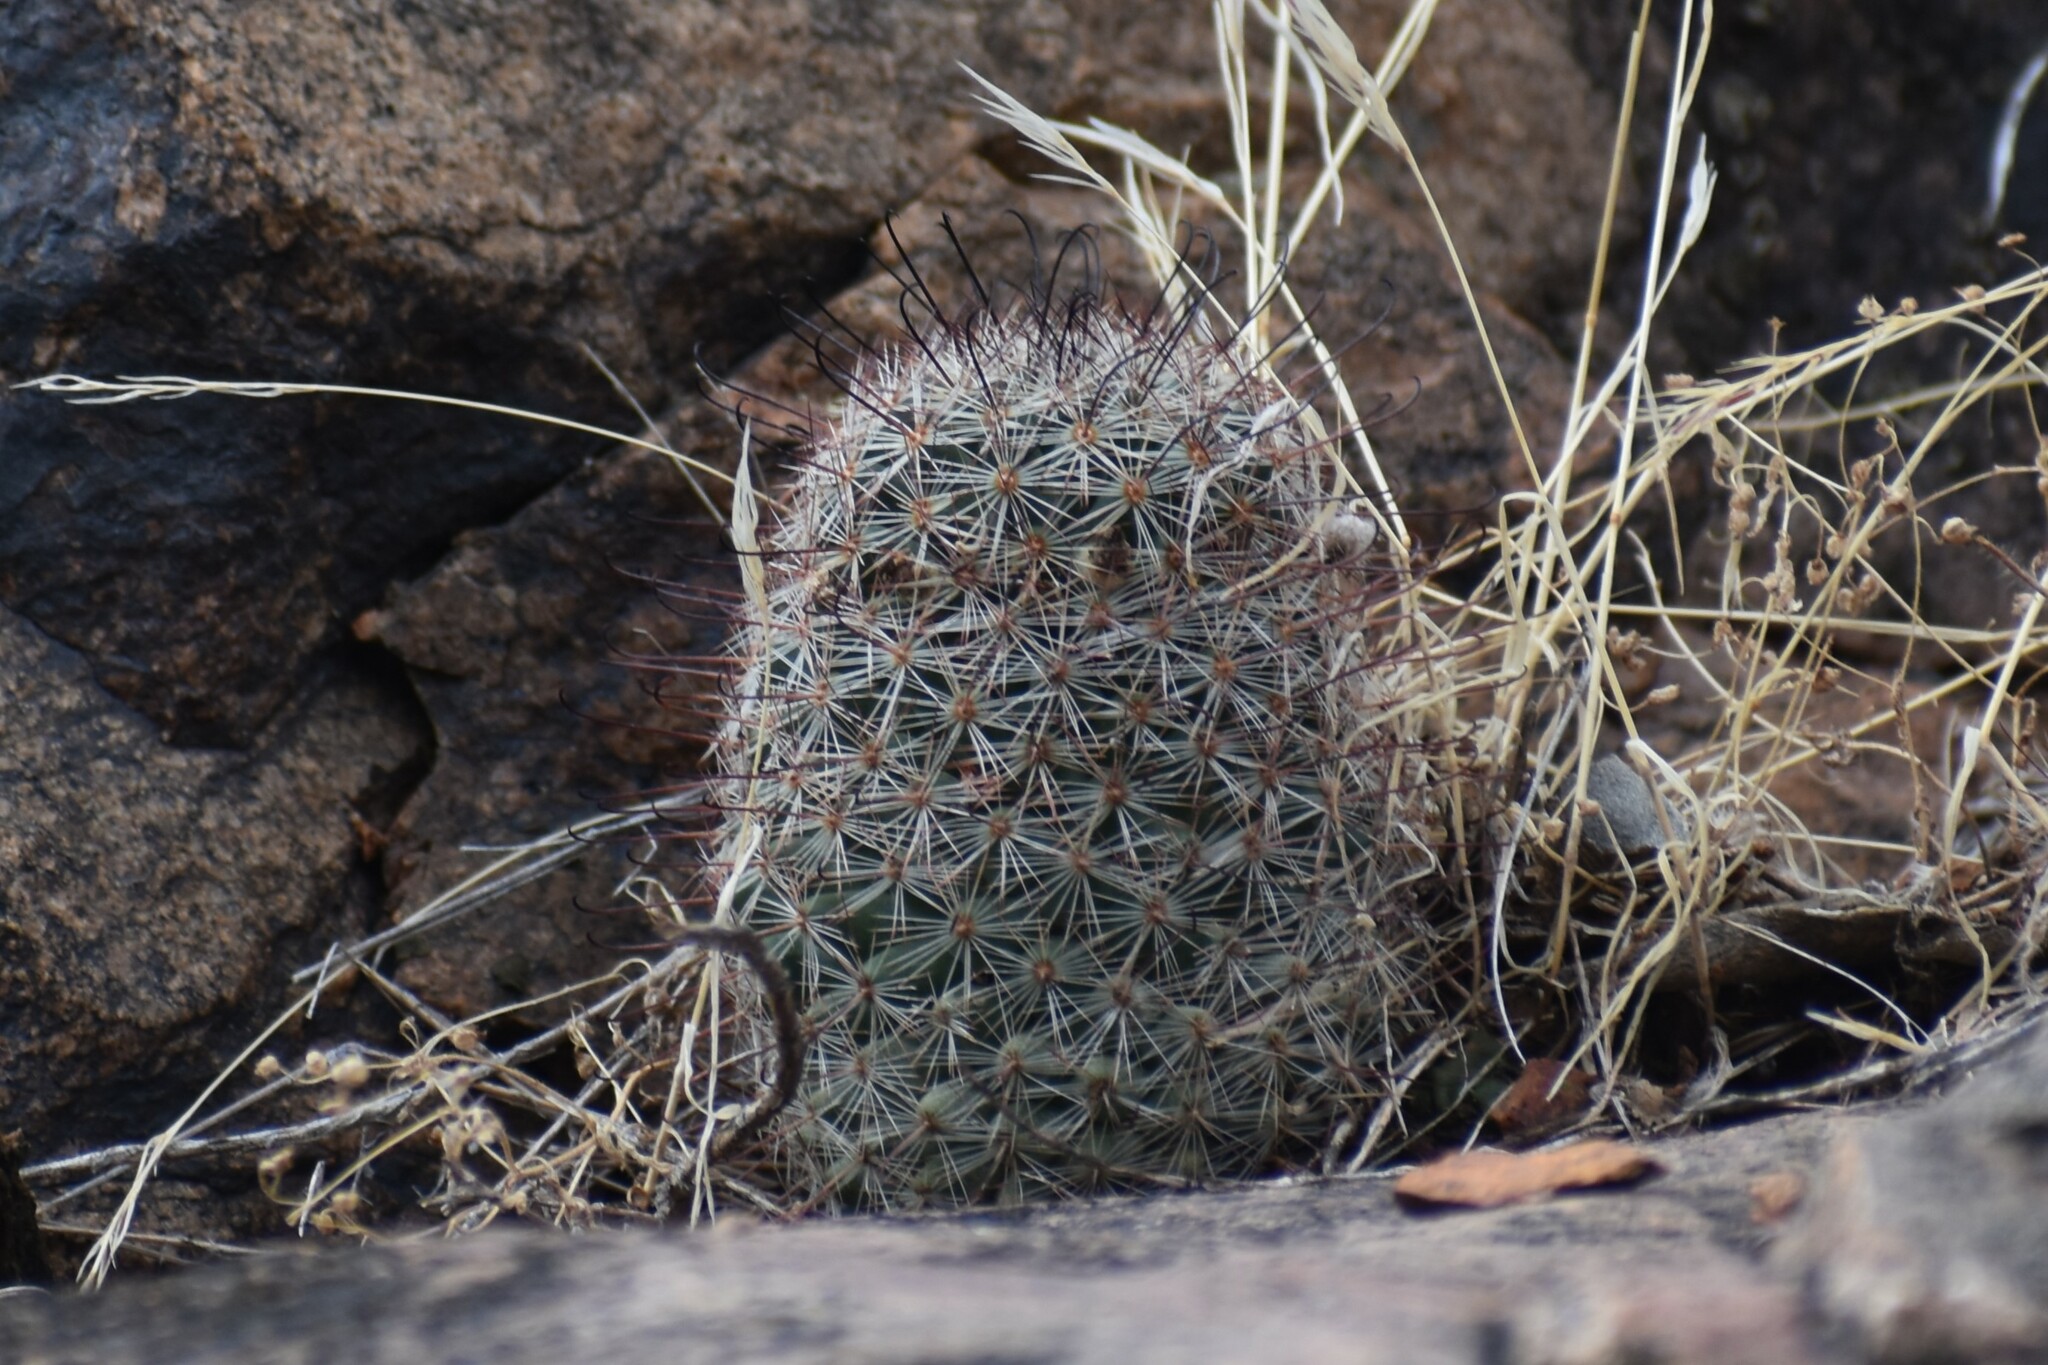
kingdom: Plantae
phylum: Tracheophyta
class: Magnoliopsida
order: Caryophyllales
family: Cactaceae
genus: Cochemiea
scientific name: Cochemiea grahamii
